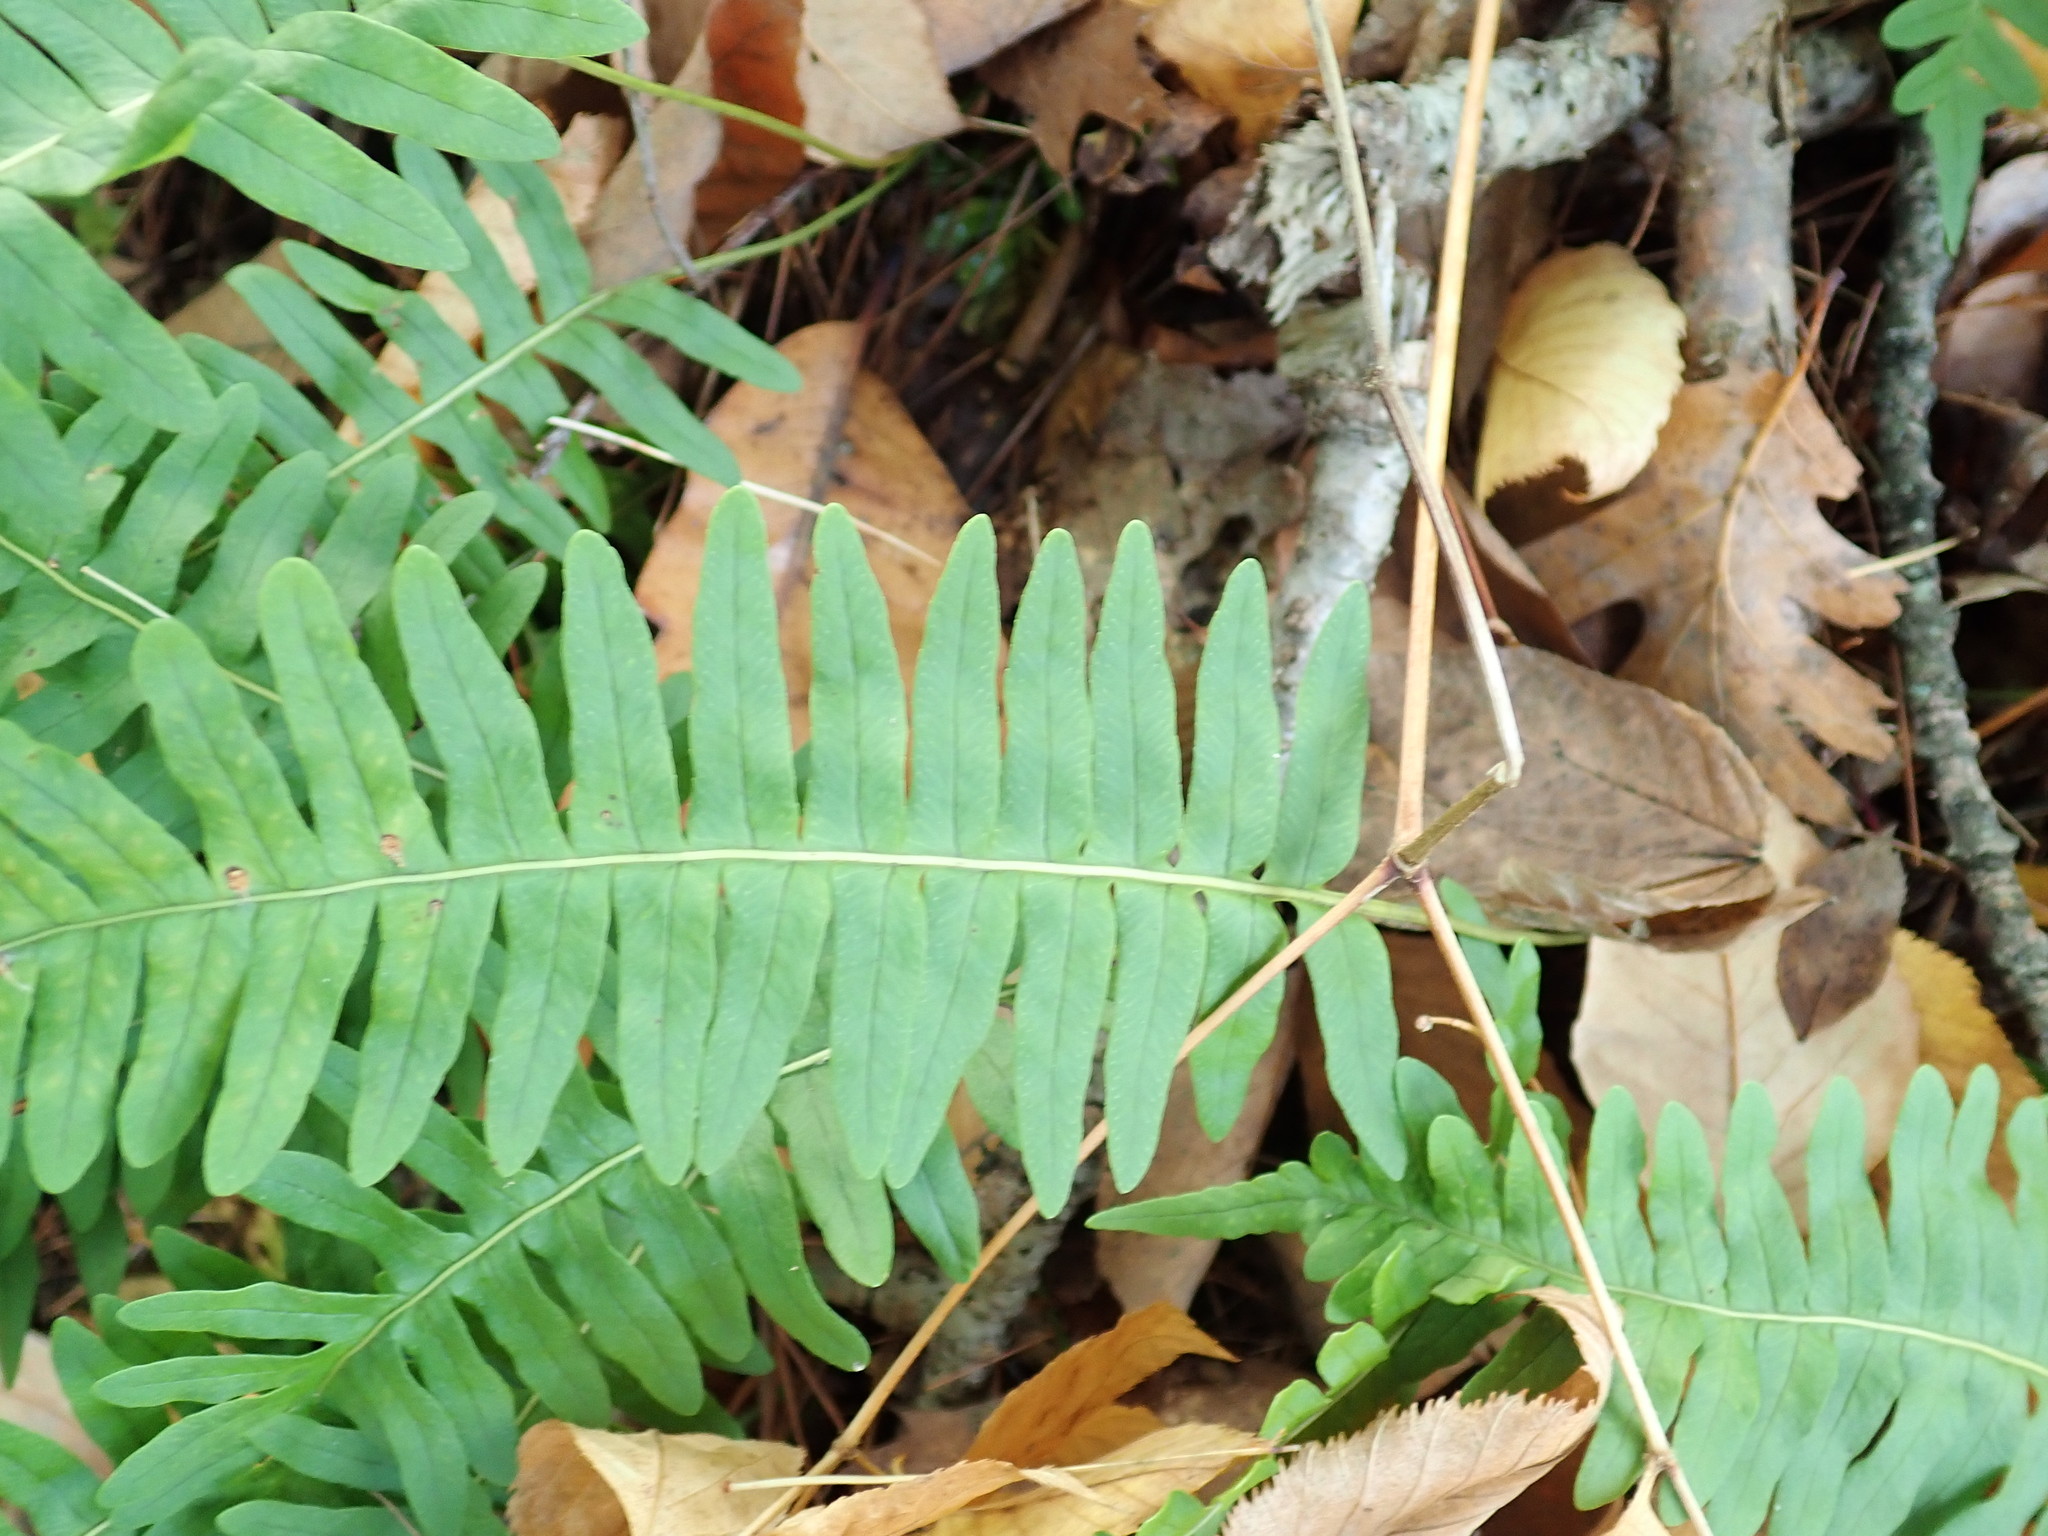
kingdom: Plantae
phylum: Tracheophyta
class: Polypodiopsida
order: Polypodiales
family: Polypodiaceae
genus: Polypodium
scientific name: Polypodium
